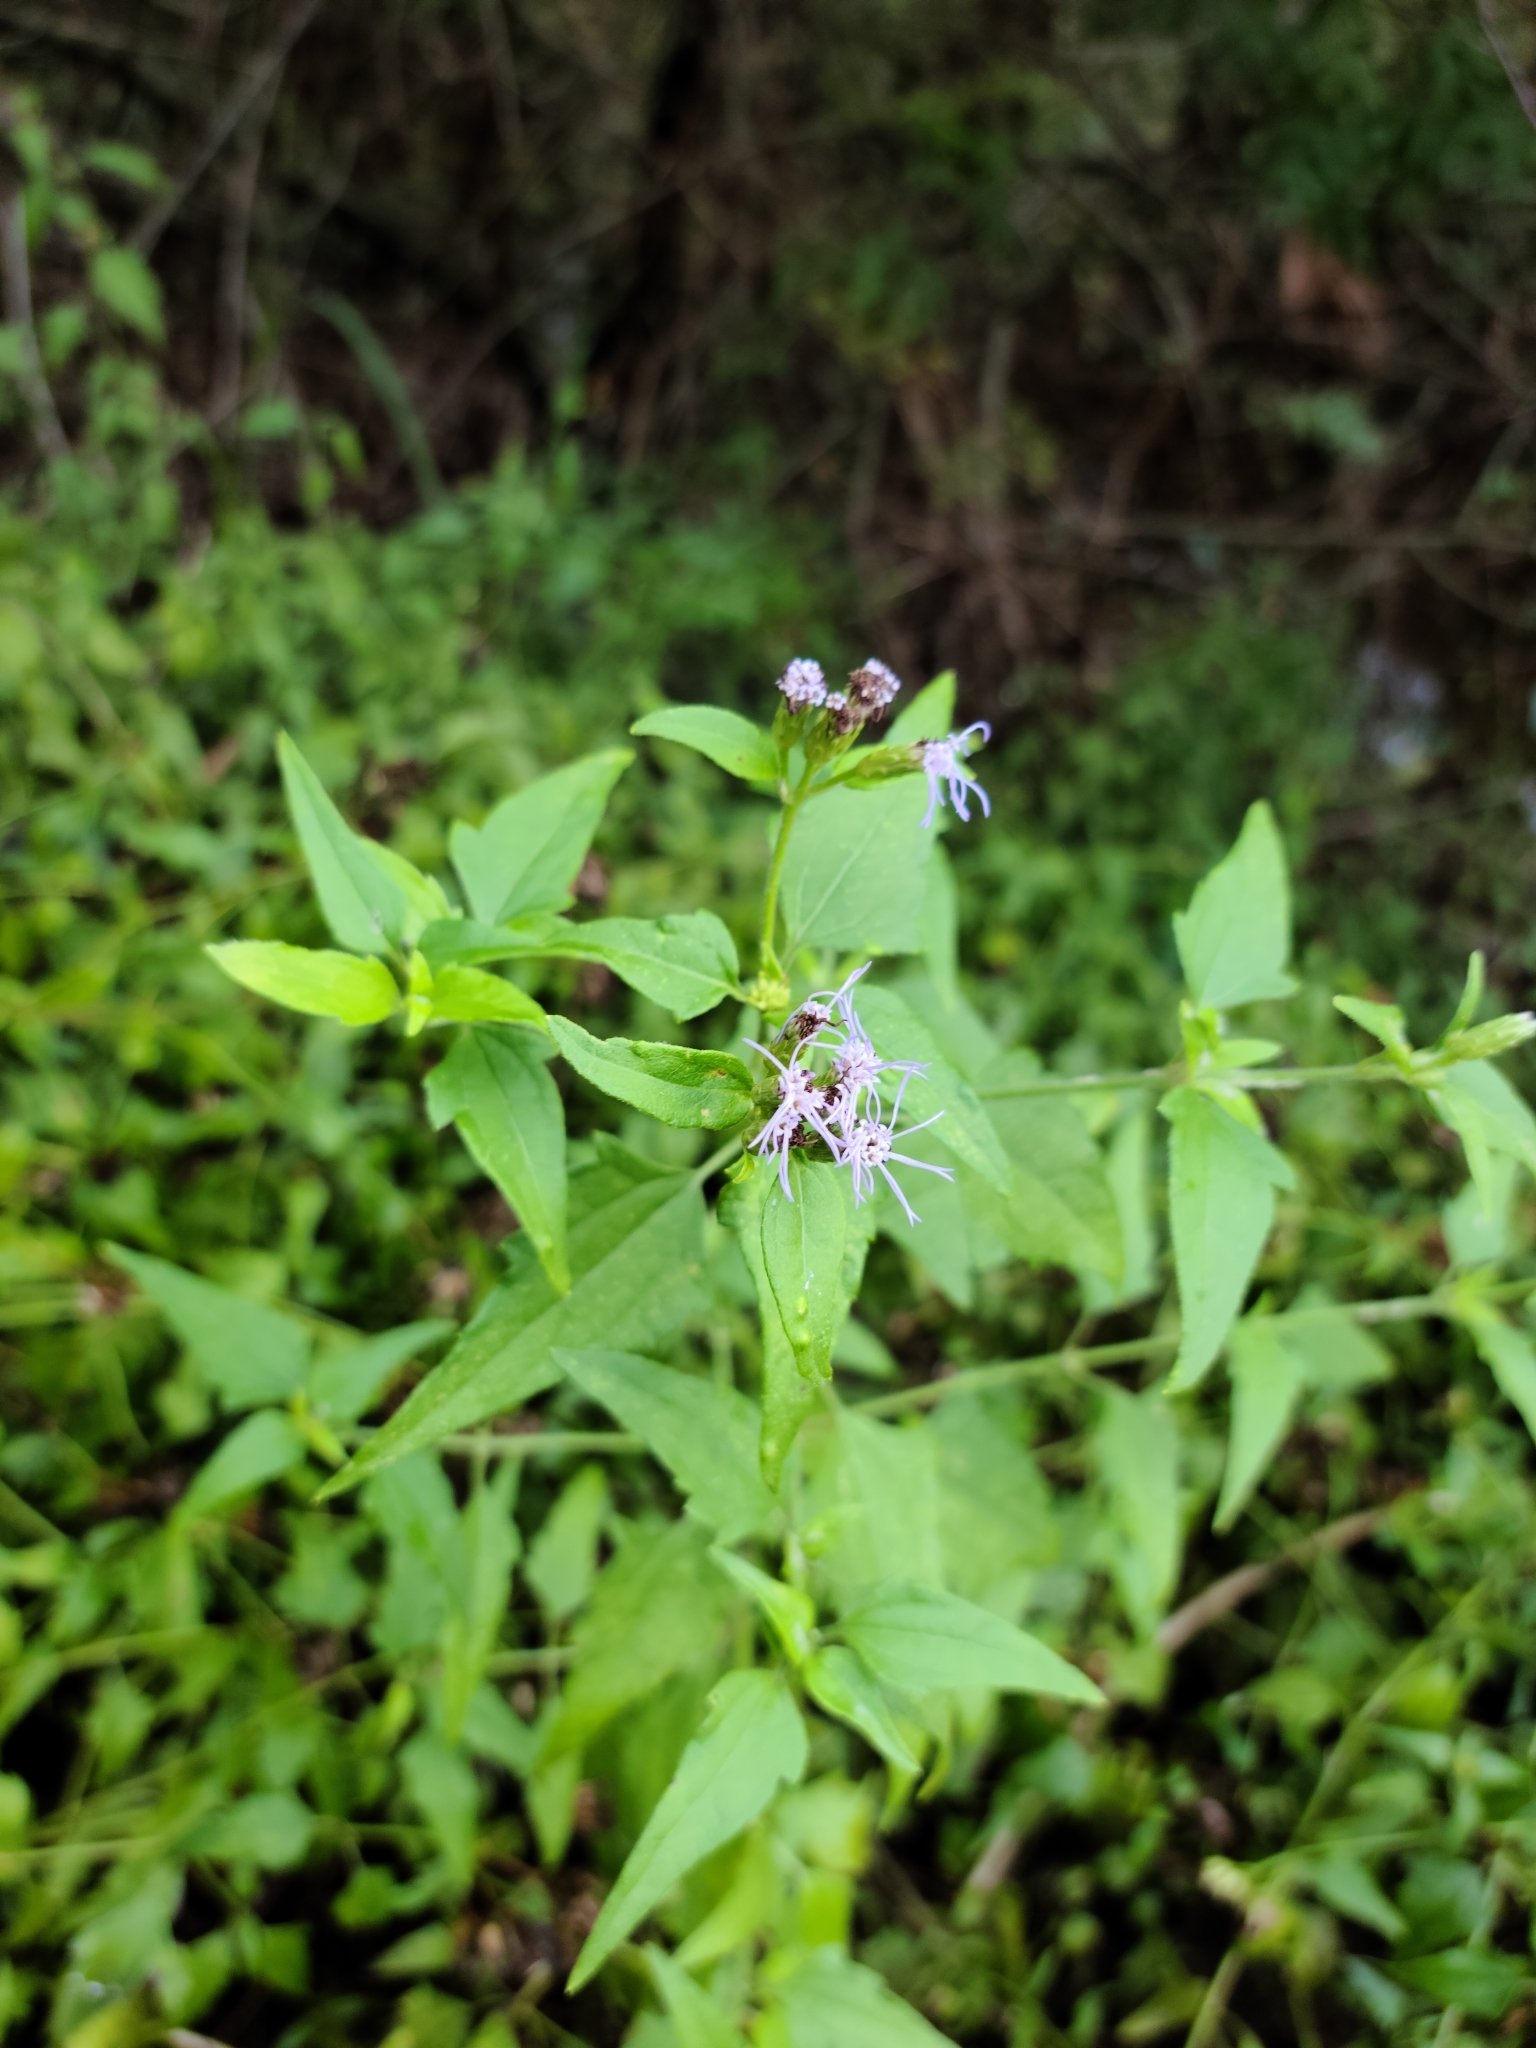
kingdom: Plantae
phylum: Tracheophyta
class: Magnoliopsida
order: Asterales
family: Asteraceae
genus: Chromolaena
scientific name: Chromolaena odorata
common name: Siamweed
